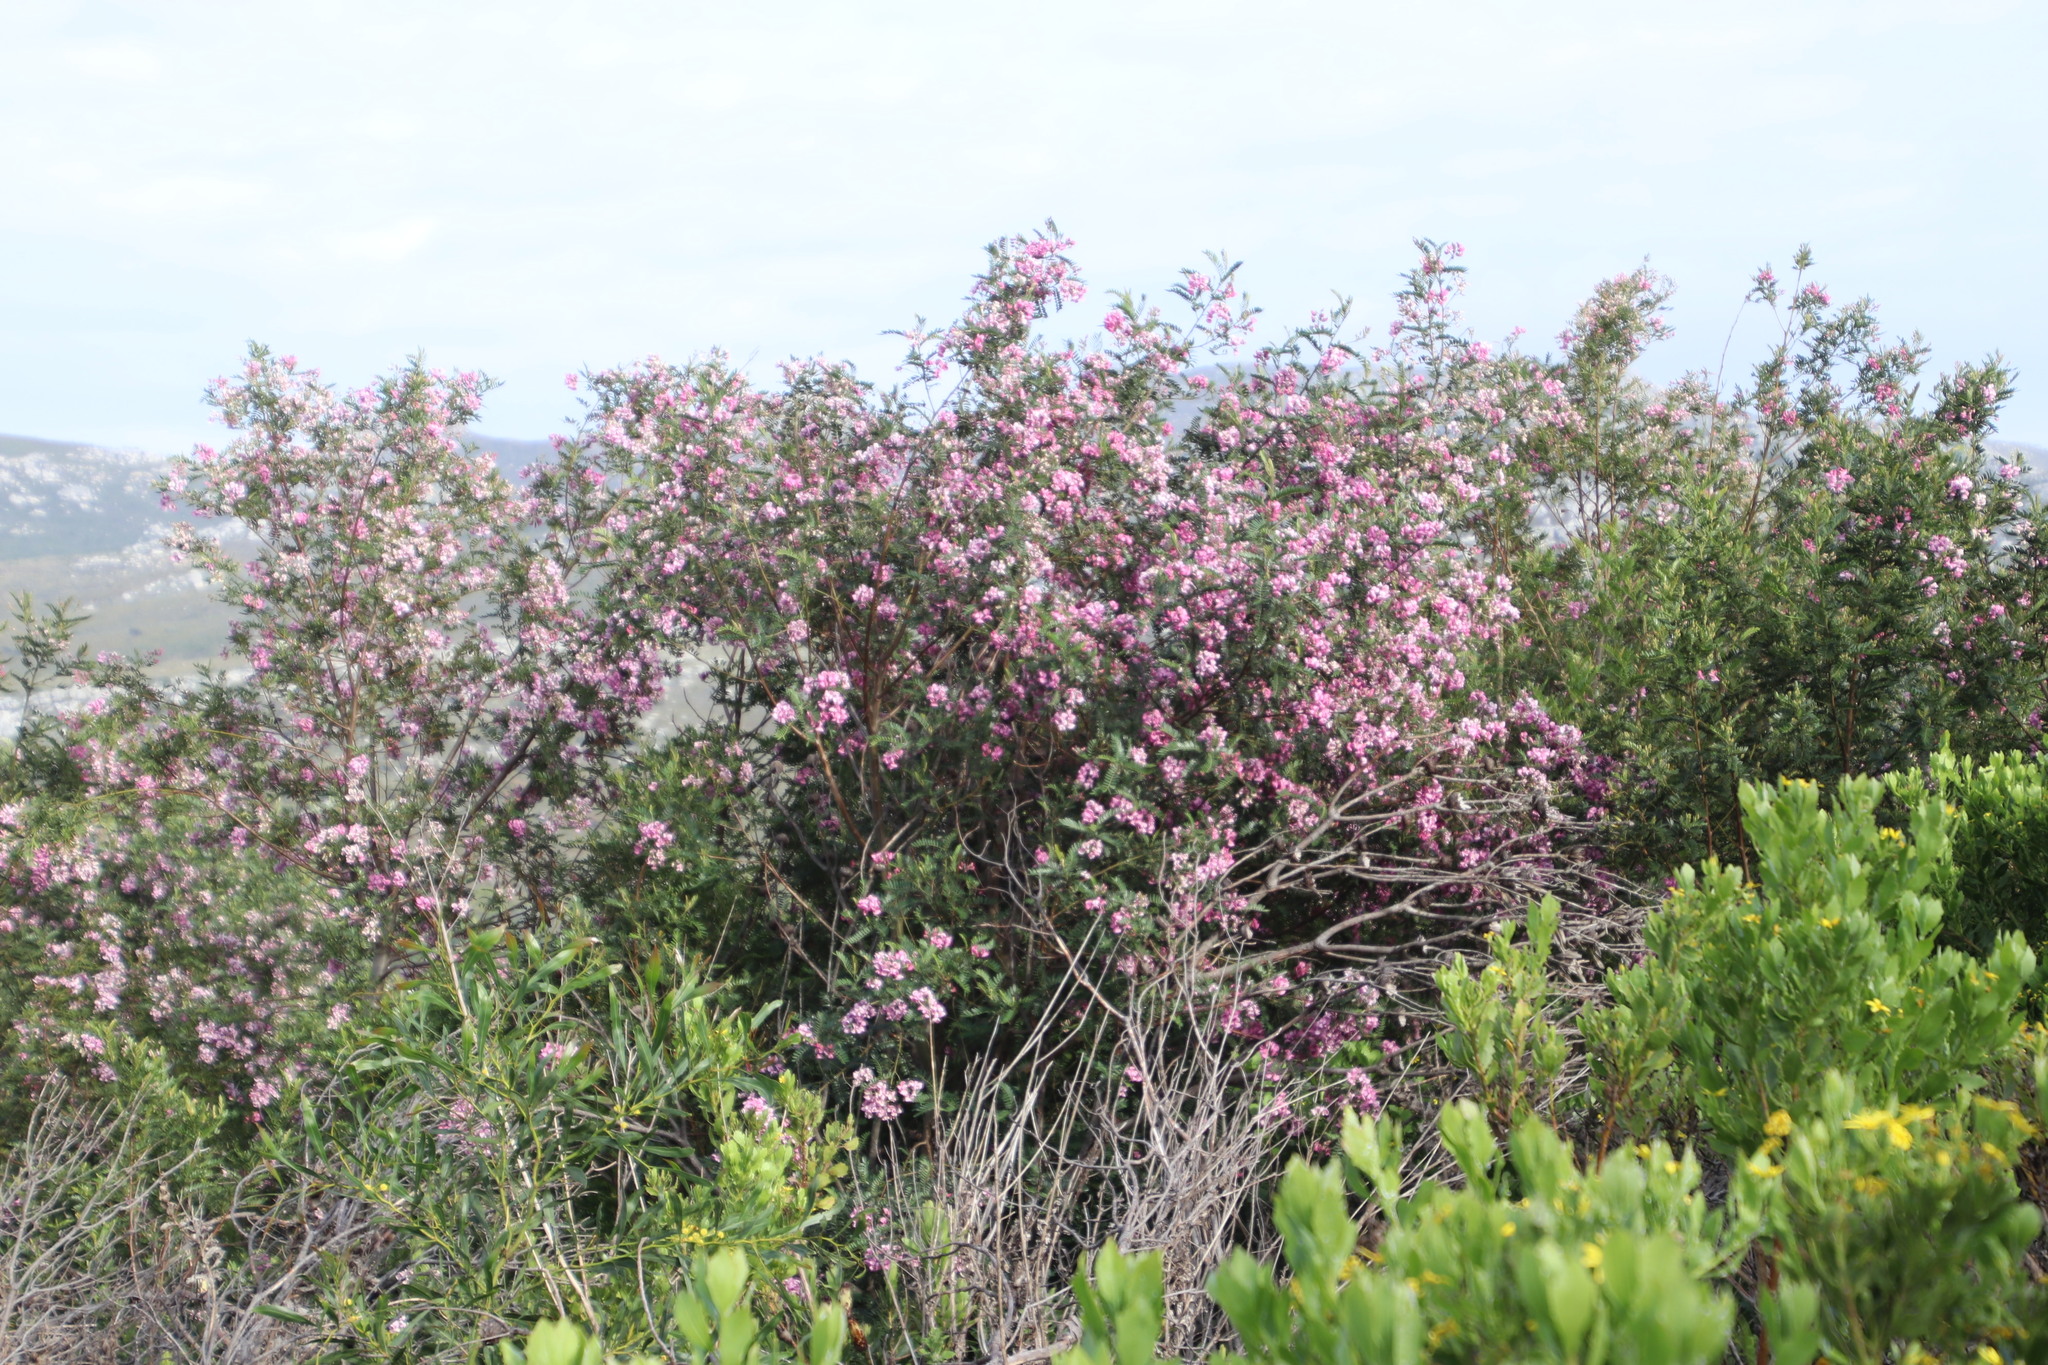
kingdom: Plantae
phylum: Tracheophyta
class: Magnoliopsida
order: Fabales
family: Fabaceae
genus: Virgilia
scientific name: Virgilia oroboides
